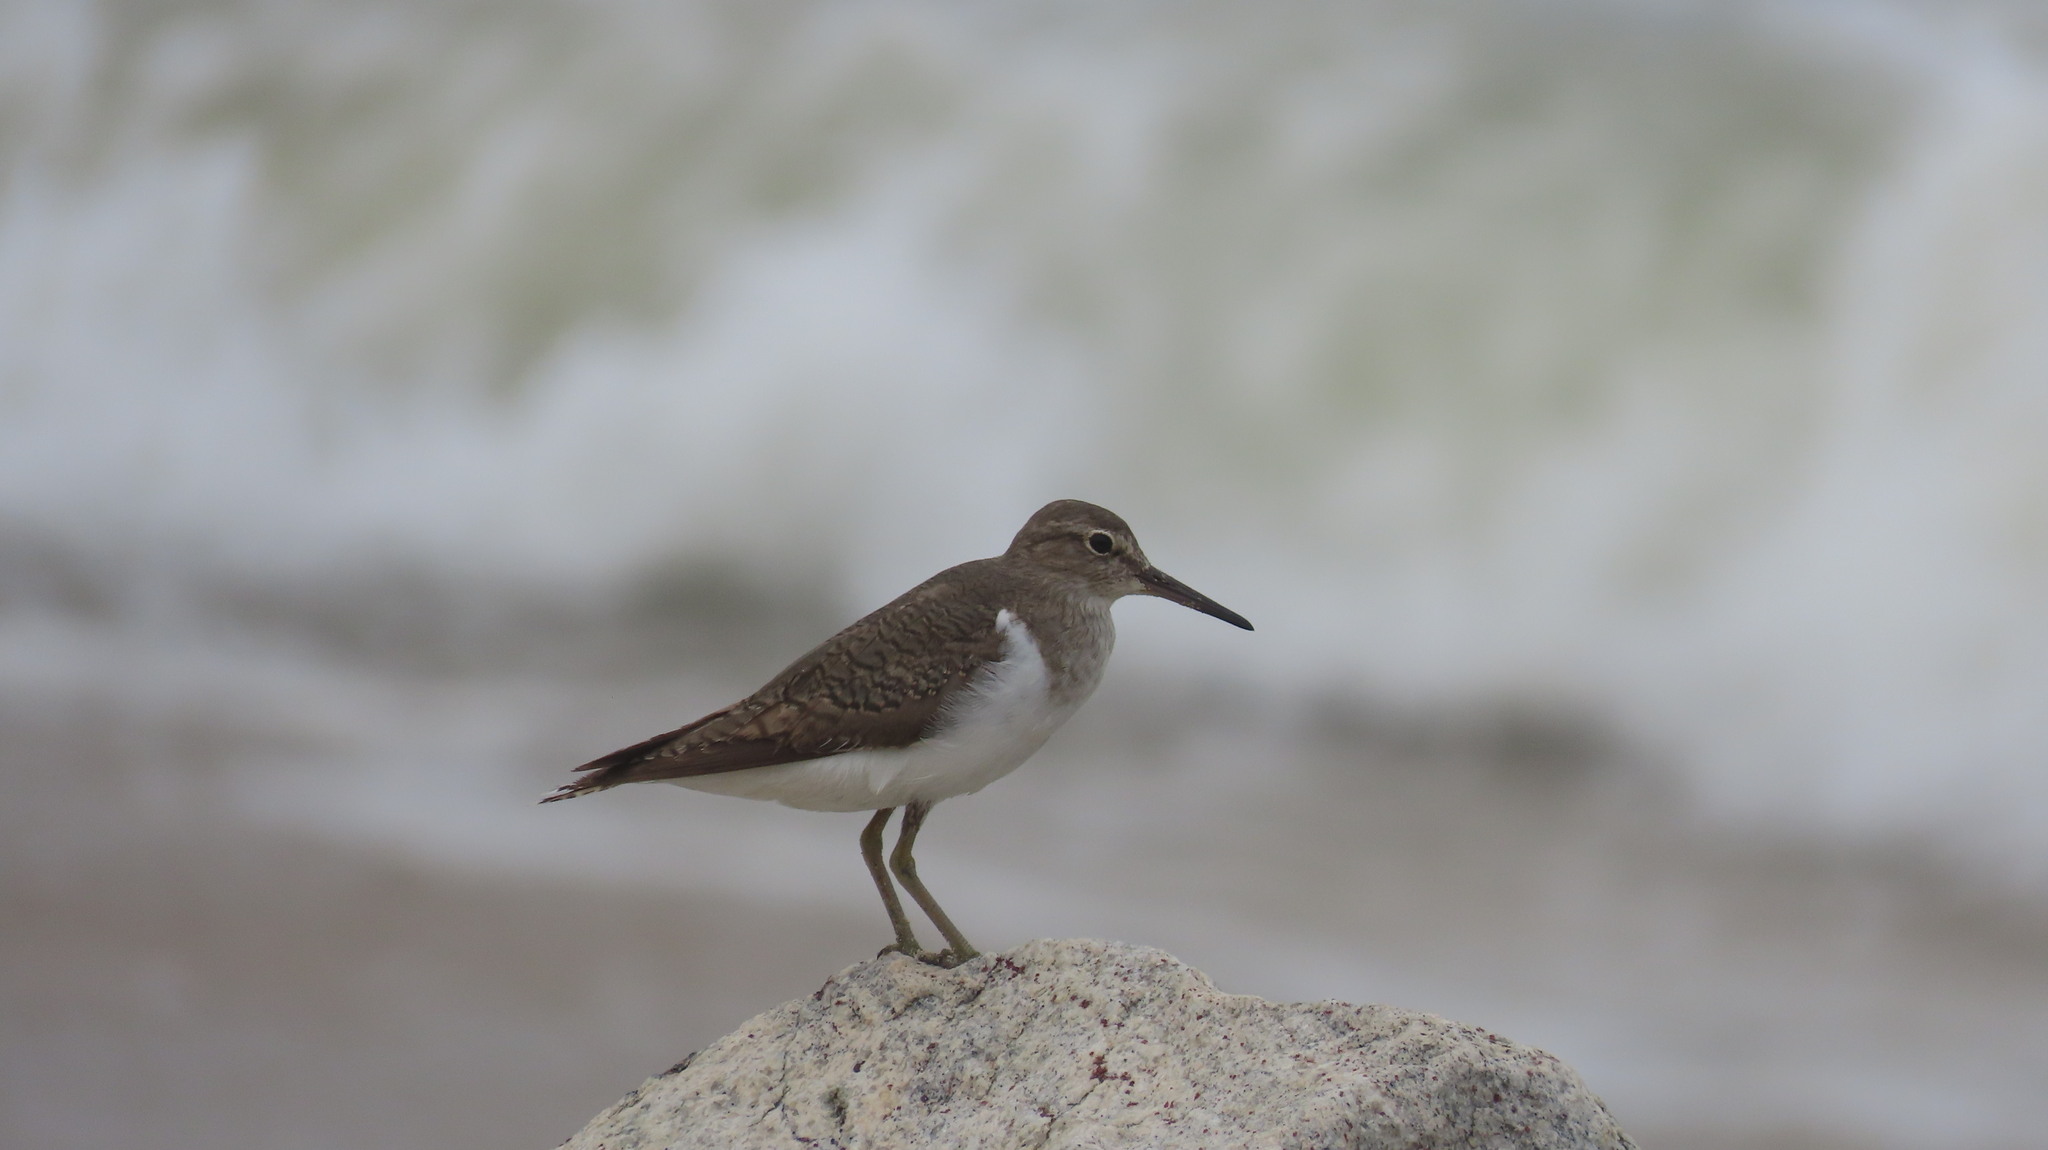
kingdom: Animalia
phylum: Chordata
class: Aves
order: Charadriiformes
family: Scolopacidae
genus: Actitis
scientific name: Actitis hypoleucos
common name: Common sandpiper
